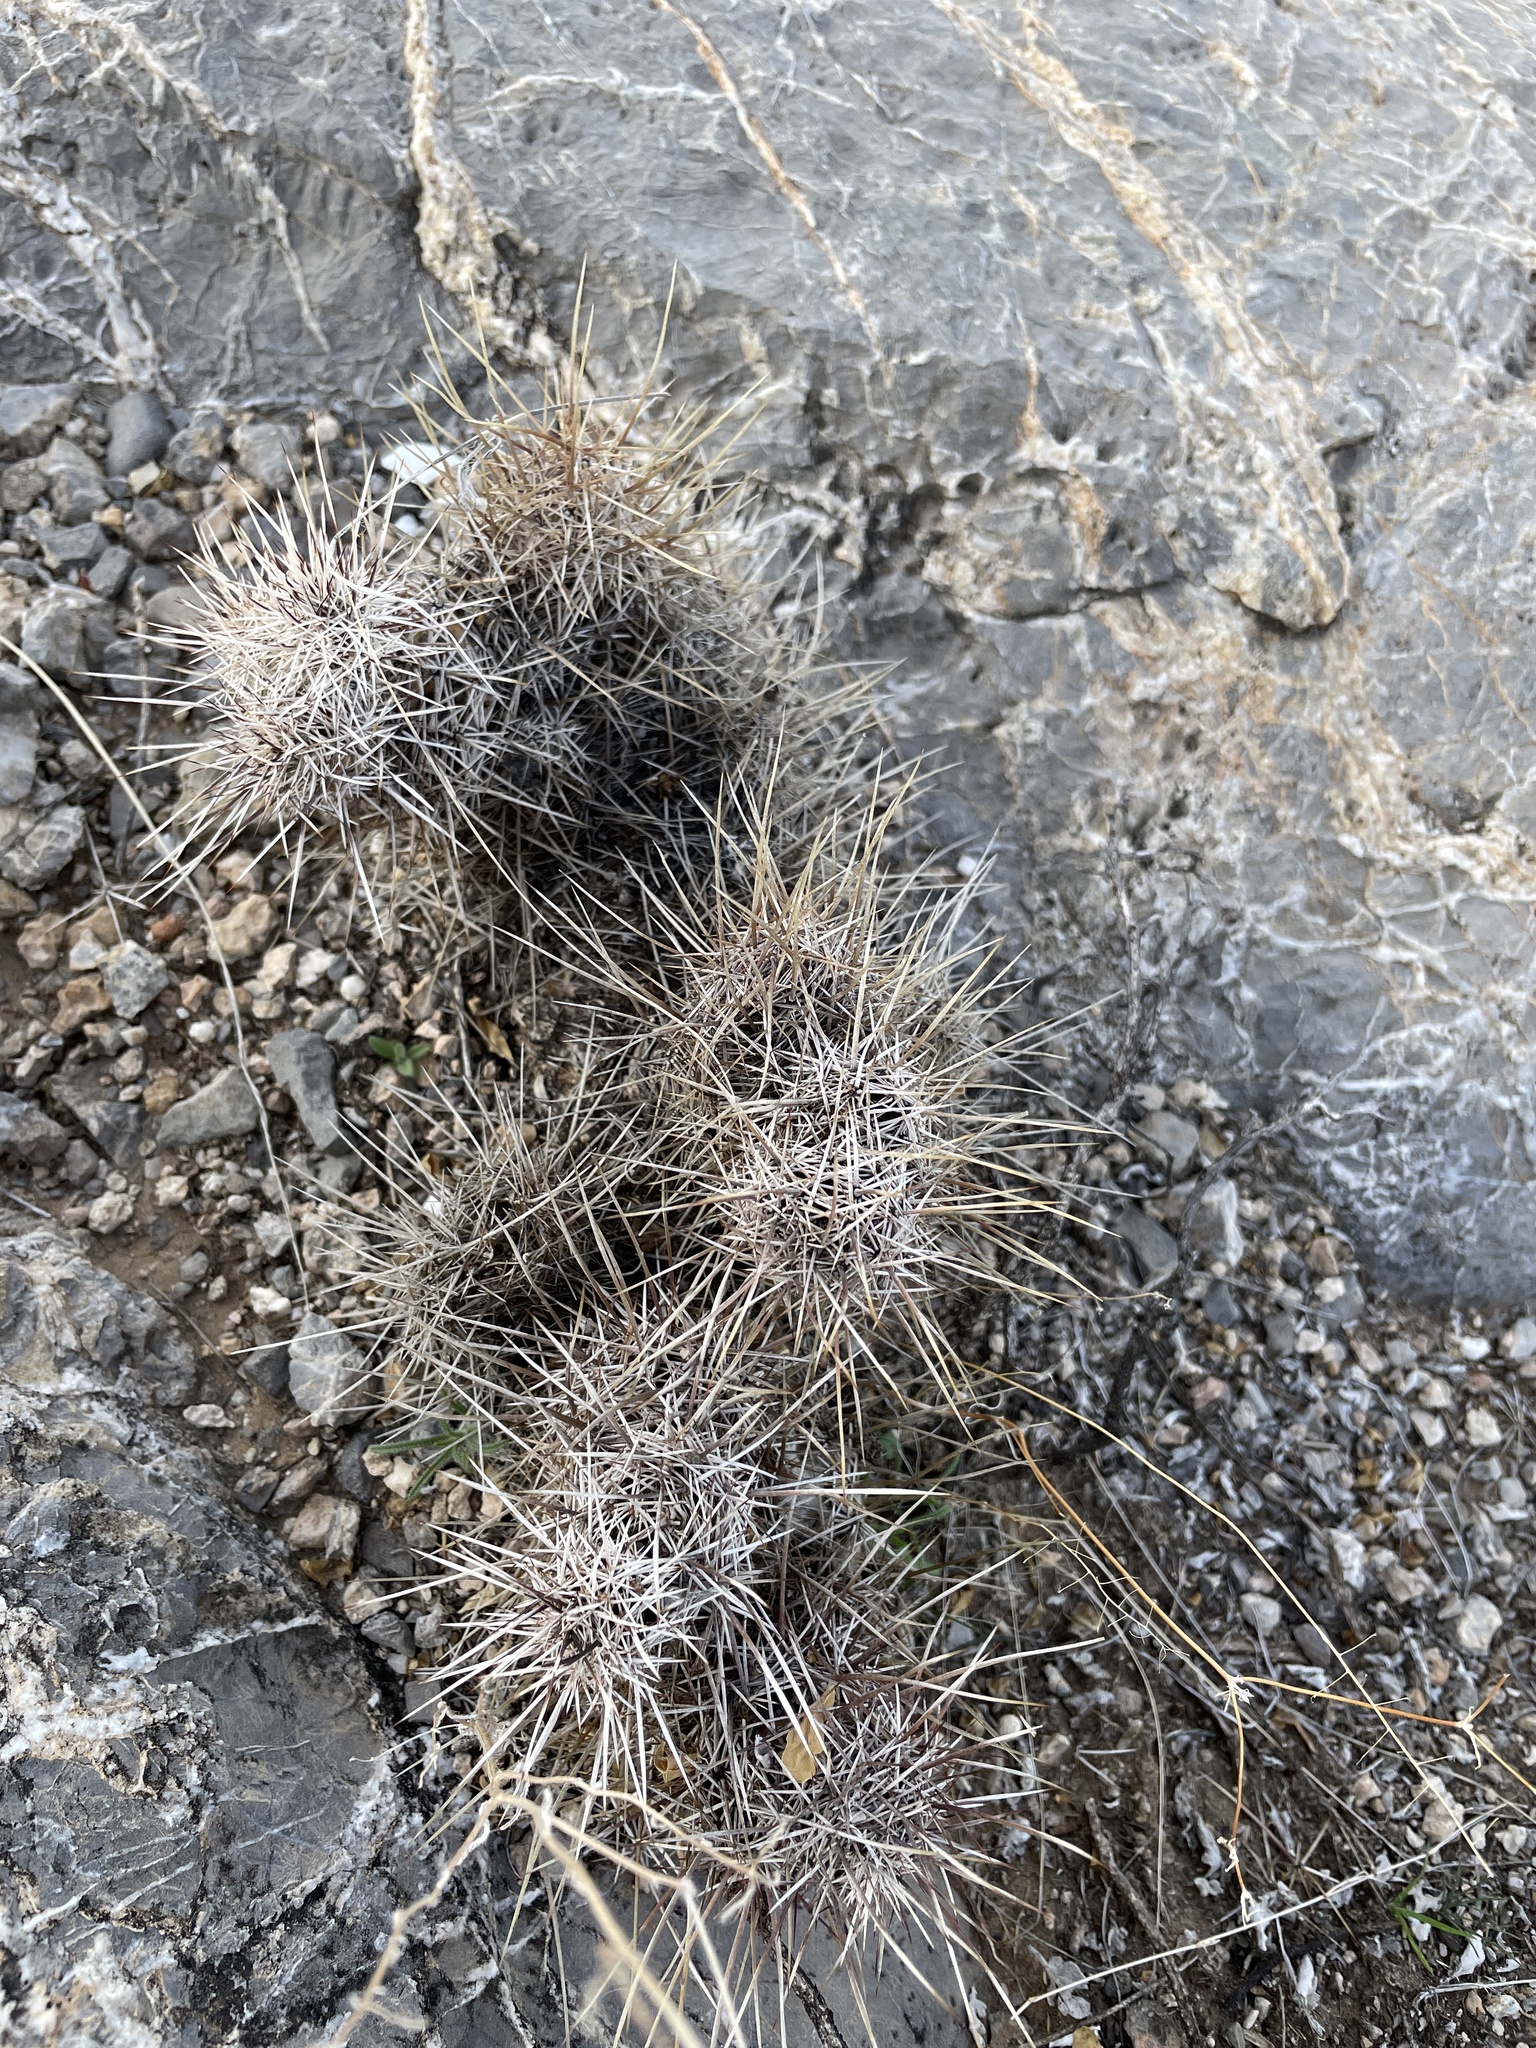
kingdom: Plantae
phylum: Tracheophyta
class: Magnoliopsida
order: Caryophyllales
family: Cactaceae
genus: Echinocereus
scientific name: Echinocereus fendleri
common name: Fendler's hedgehog cactus
